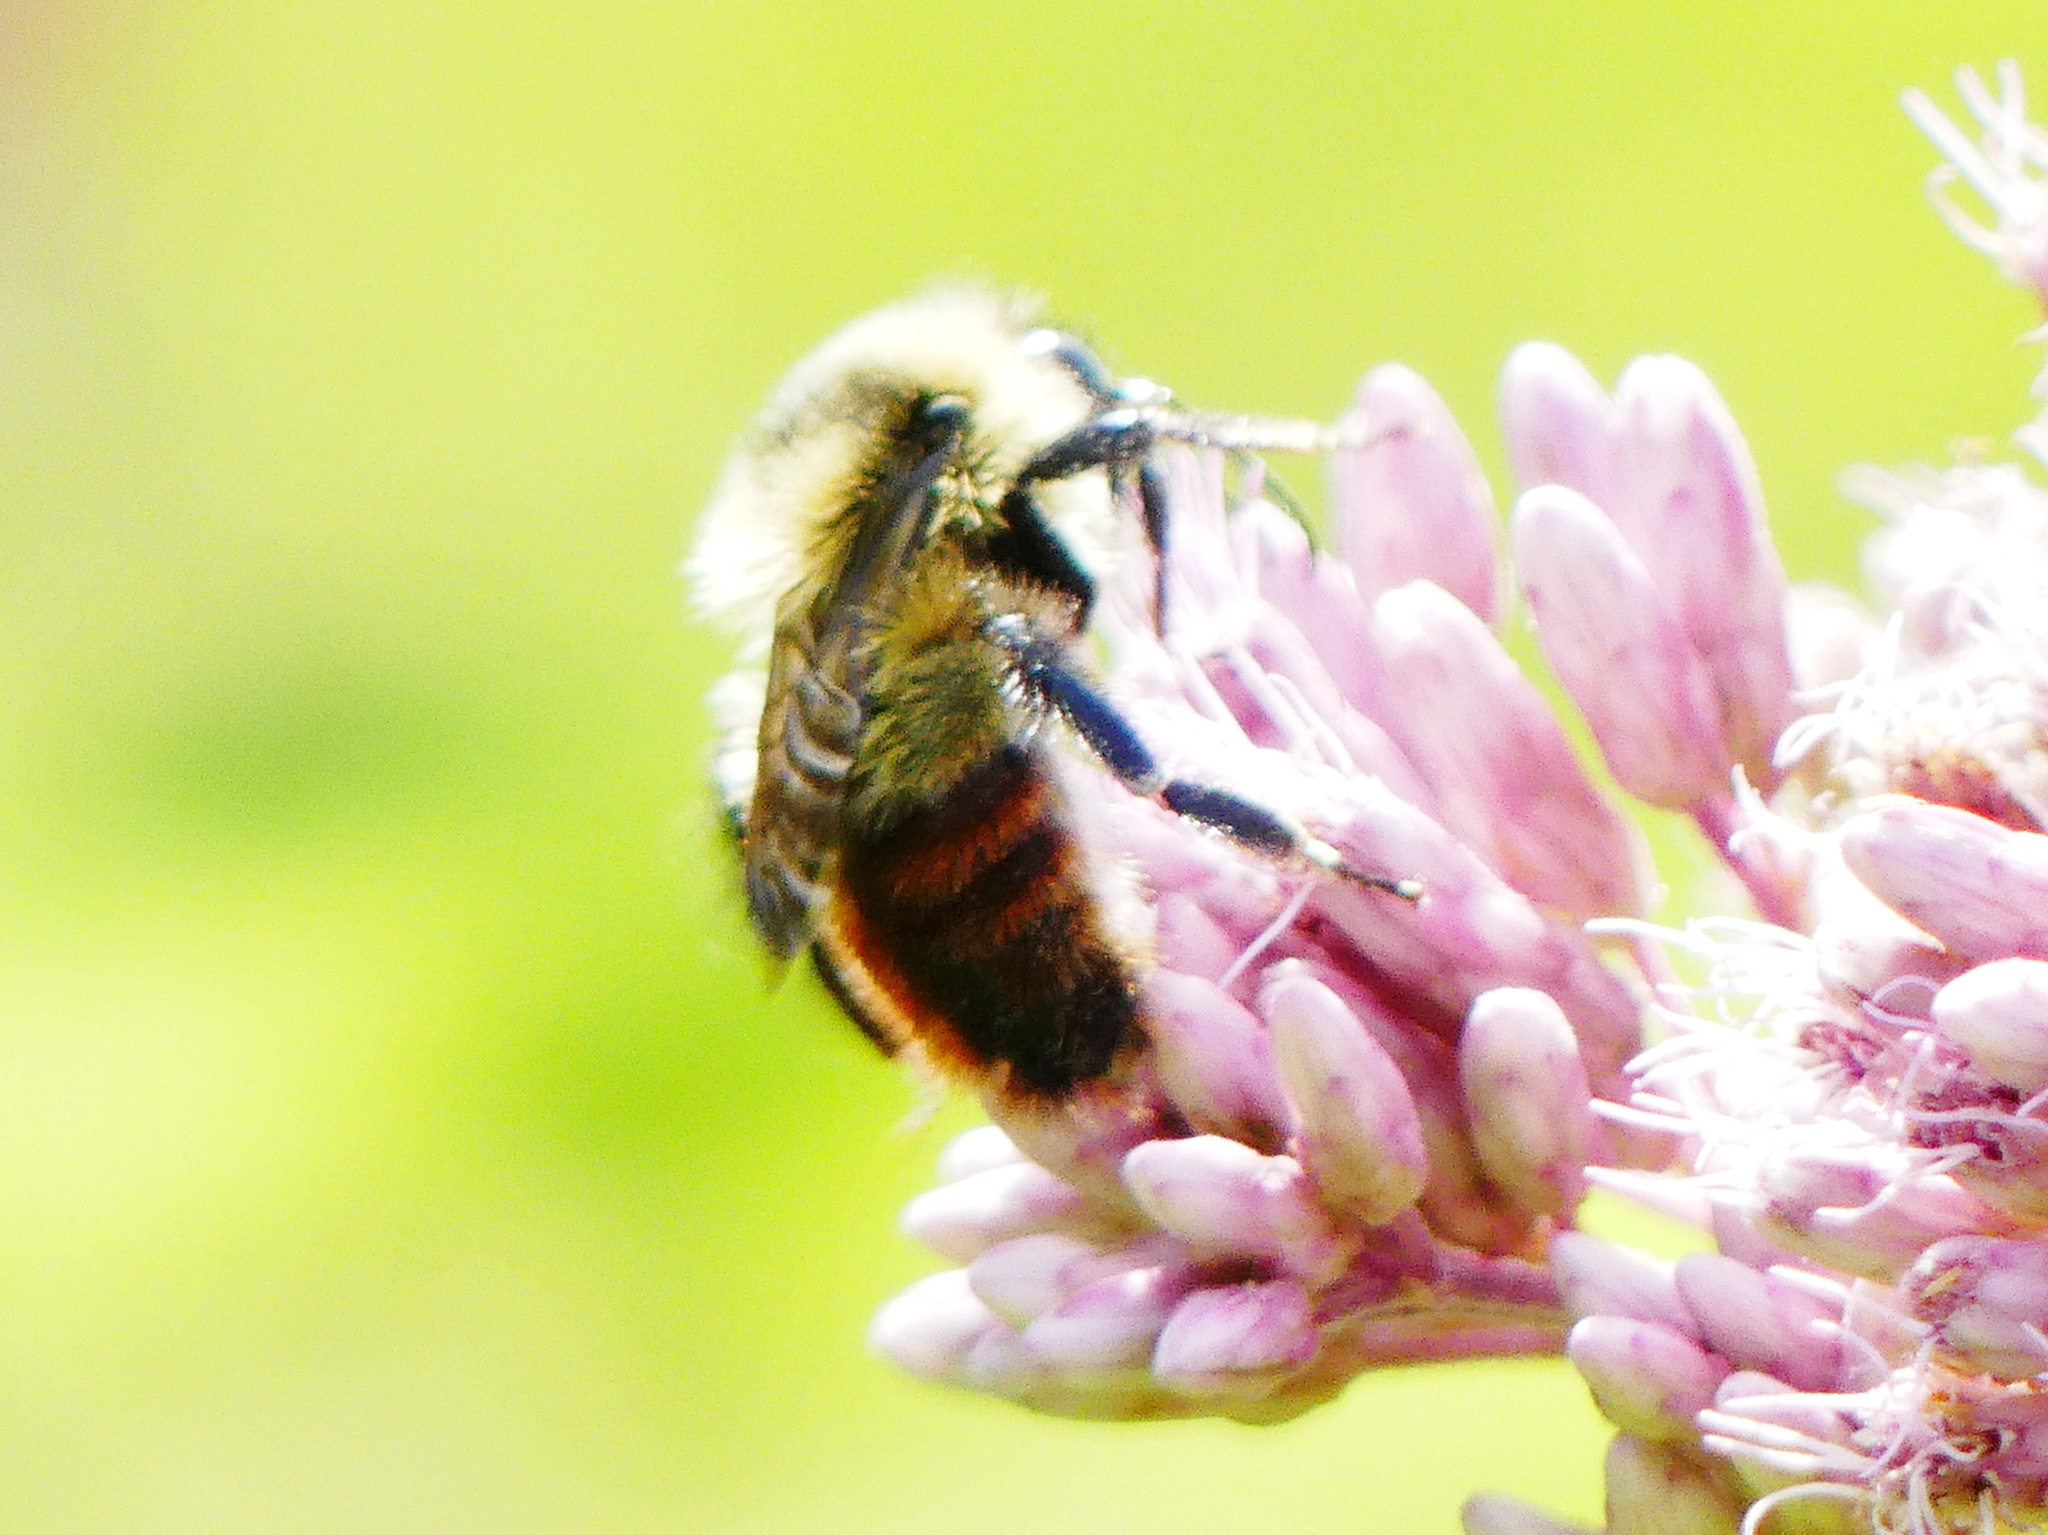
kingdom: Animalia
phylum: Arthropoda
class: Insecta
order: Hymenoptera
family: Apidae
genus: Bombus
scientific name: Bombus rufocinctus
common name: Red-belted bumble bee
